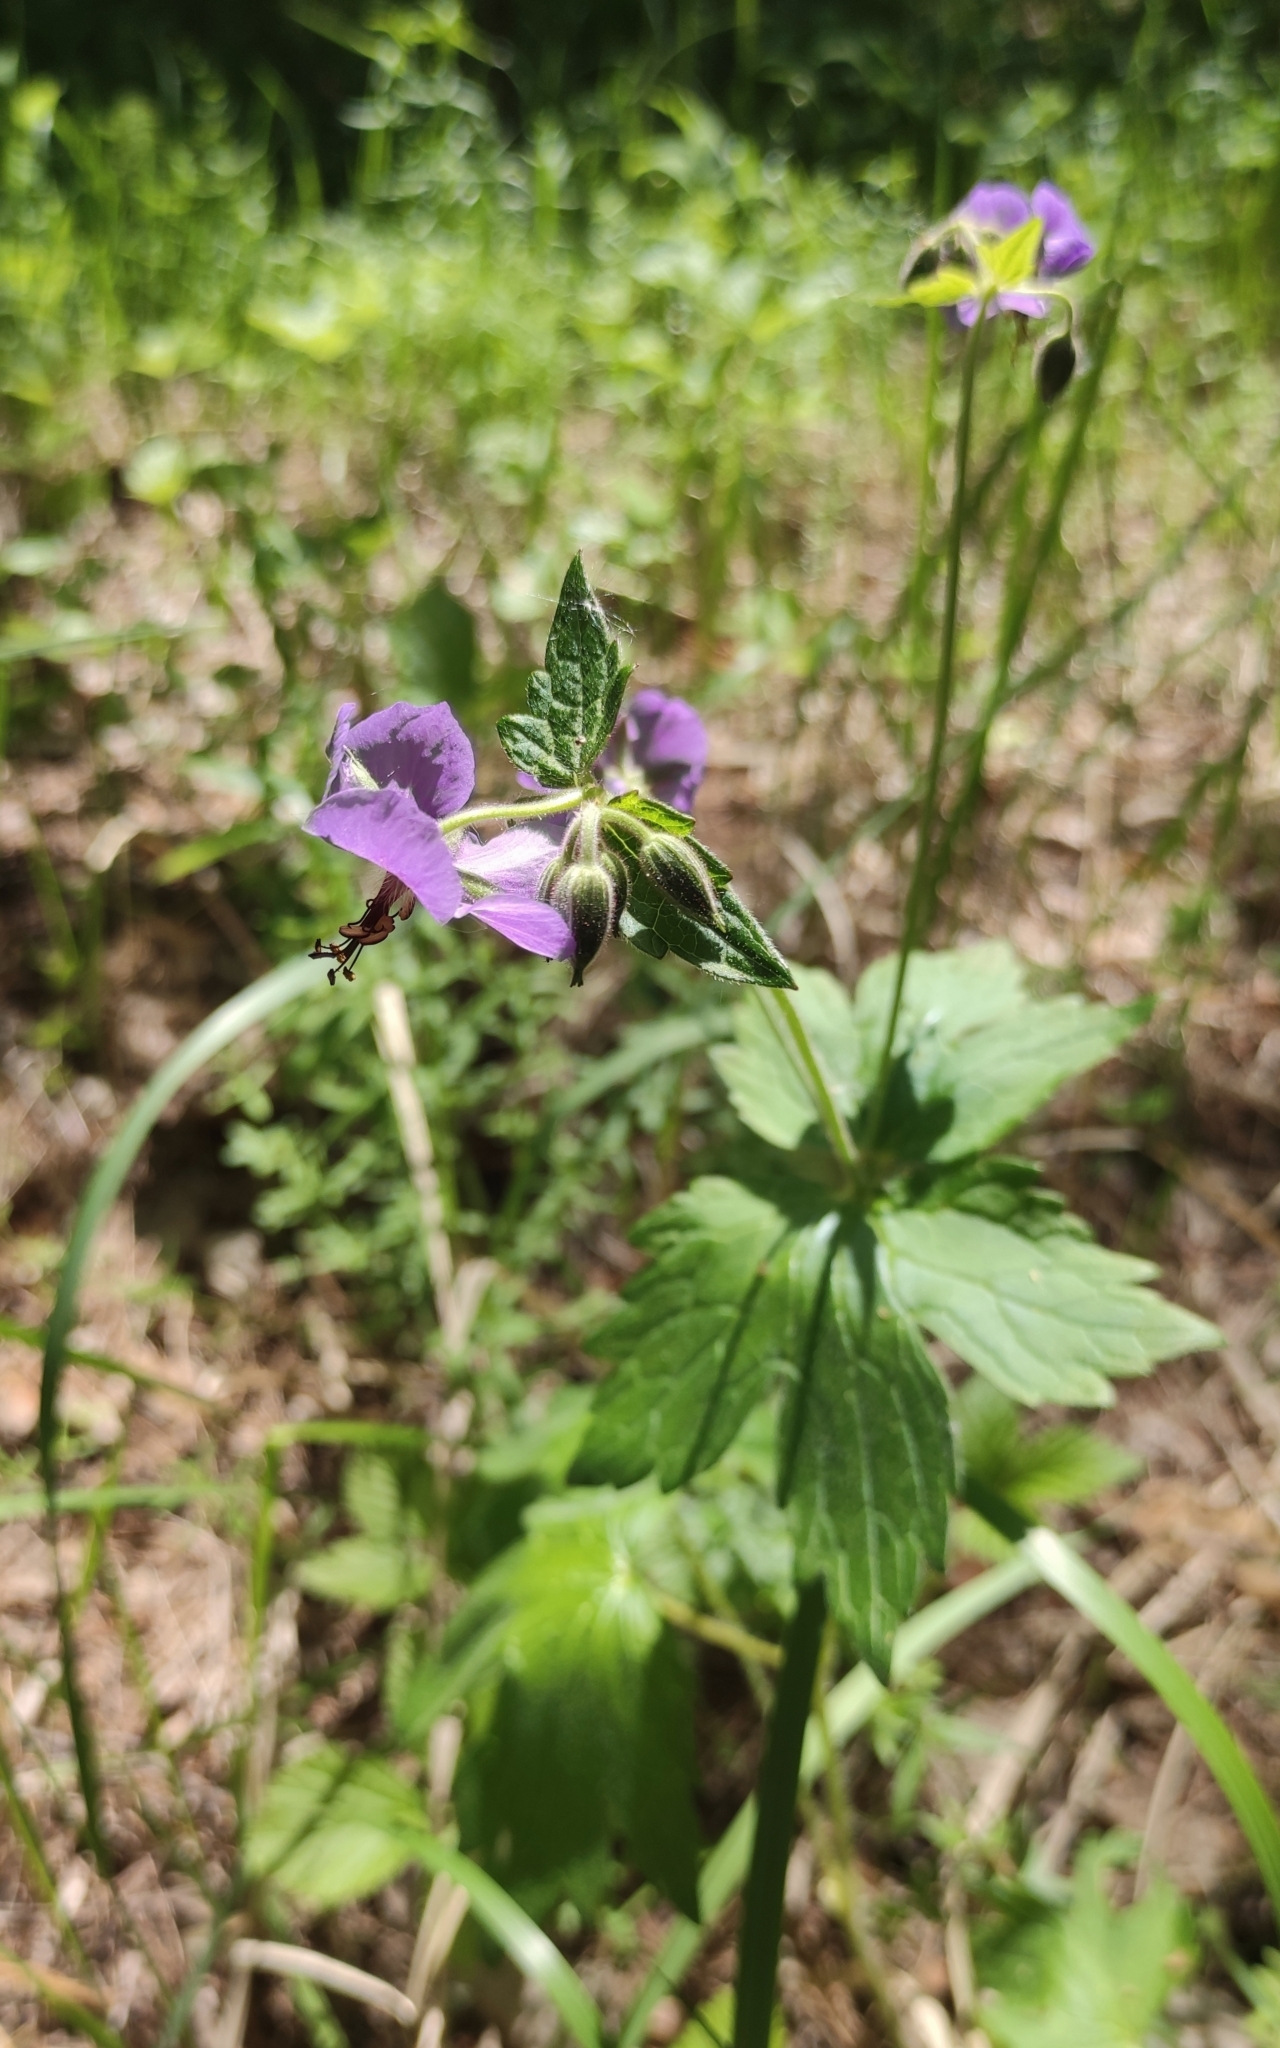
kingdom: Plantae
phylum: Tracheophyta
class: Magnoliopsida
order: Geraniales
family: Geraniaceae
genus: Geranium
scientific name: Geranium platyanthum
